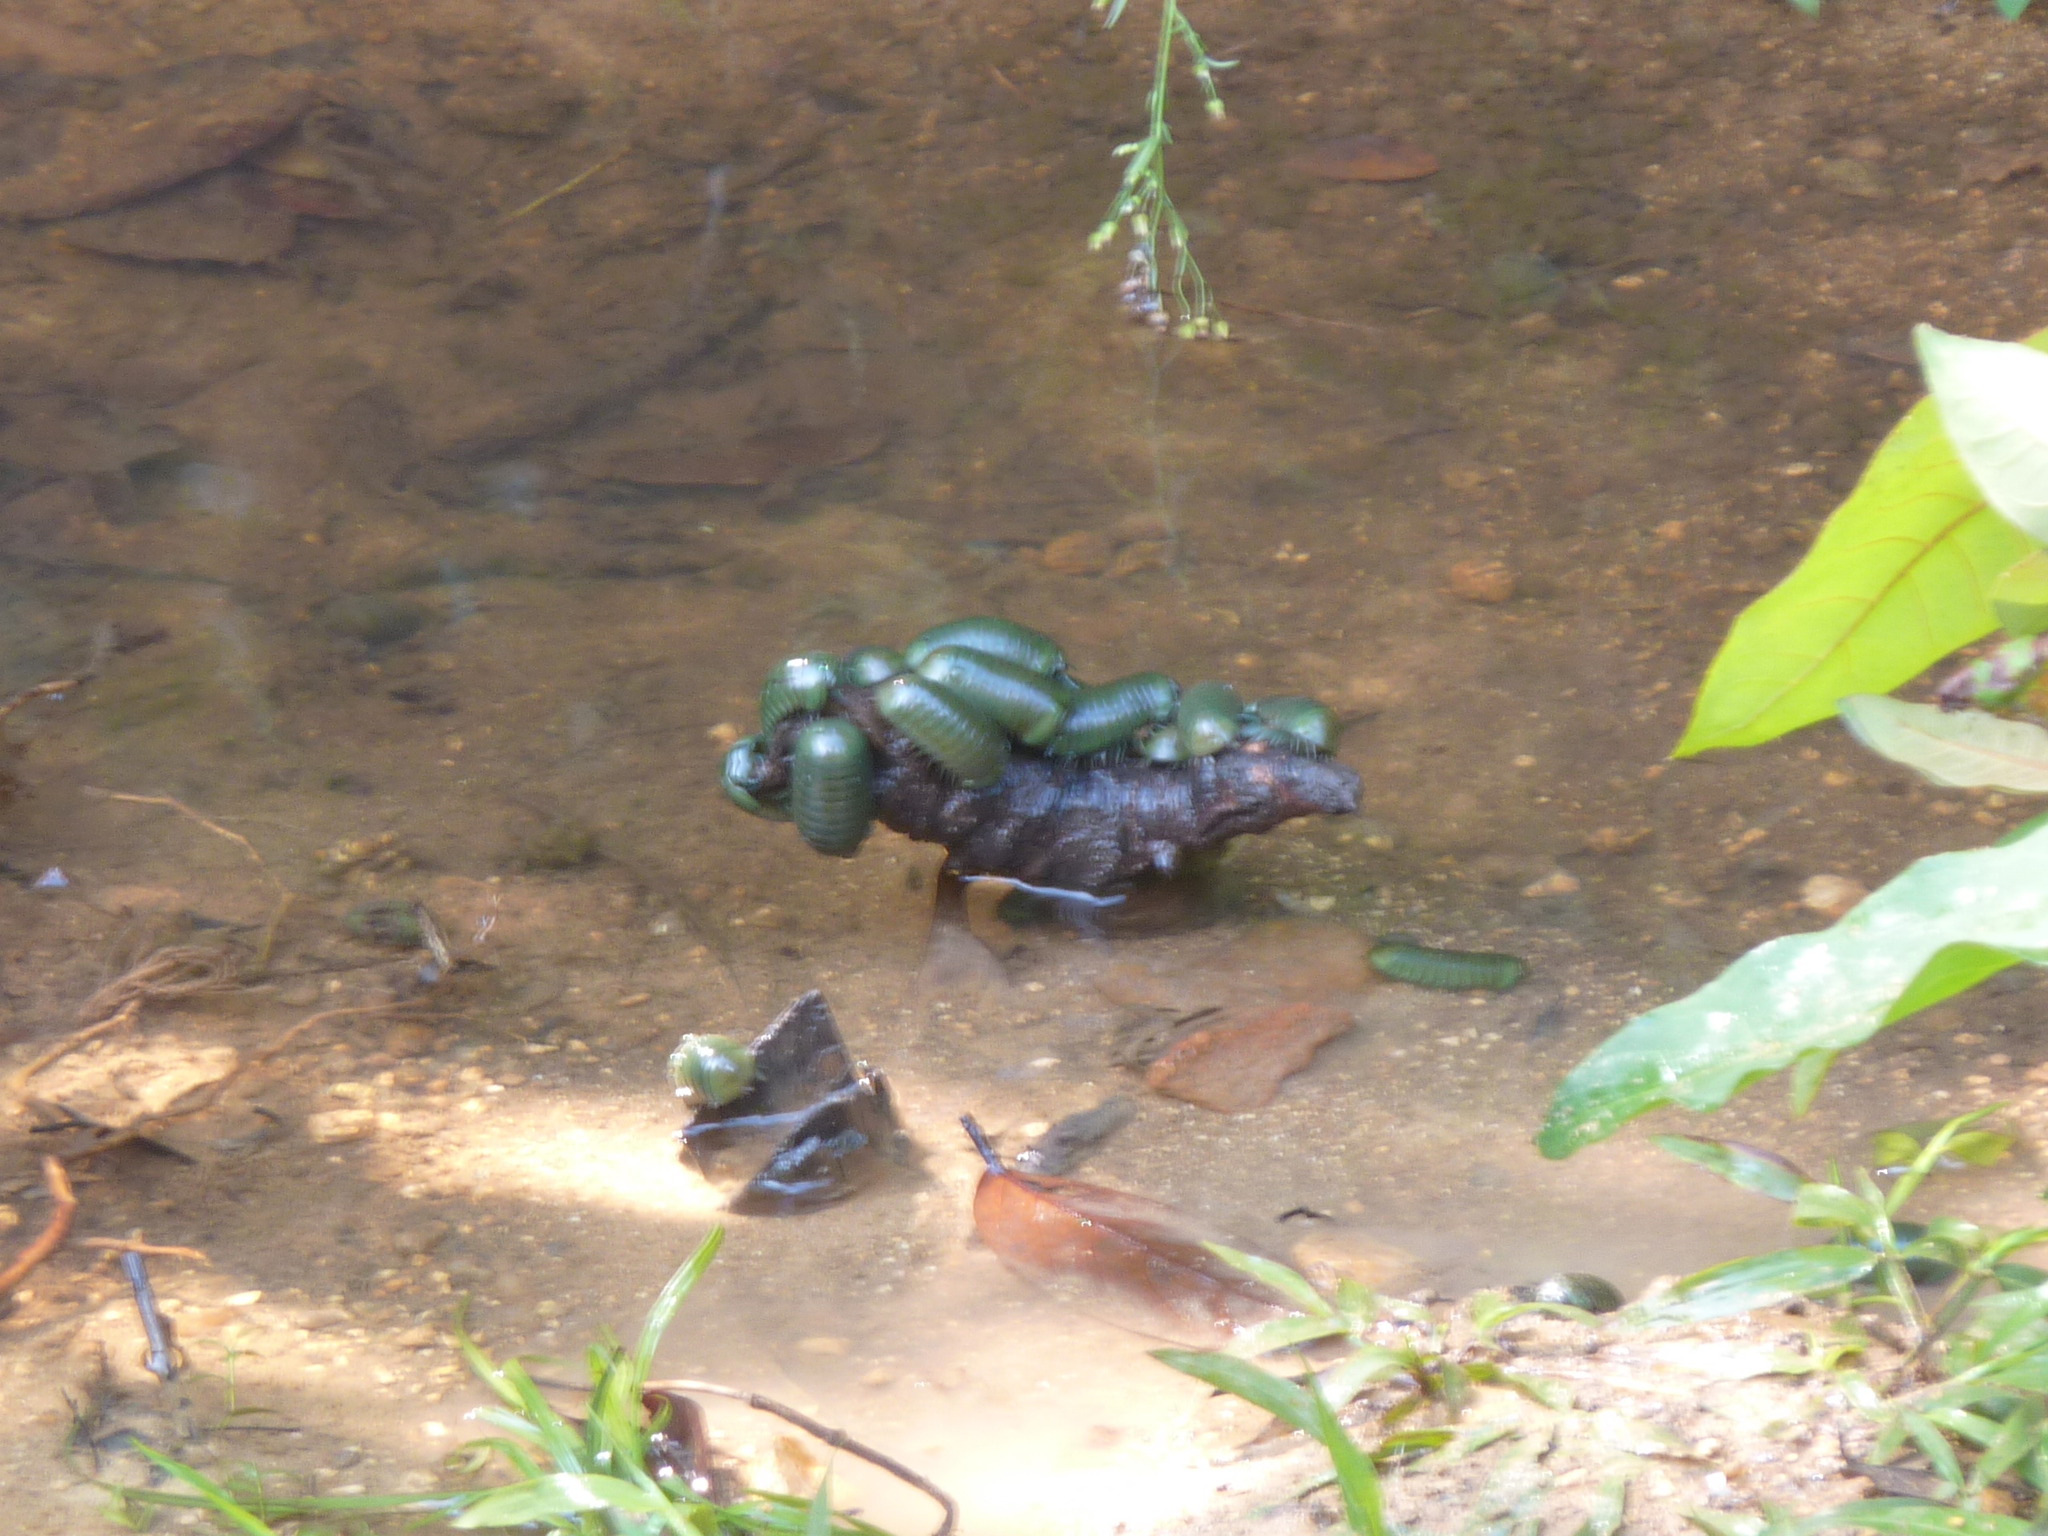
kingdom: Animalia
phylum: Arthropoda
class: Diplopoda
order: Sphaerotheriida
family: Arthrosphaeridae
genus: Zoosphaerium
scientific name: Zoosphaerium neptunus
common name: Emerald green giant pill-millipede
